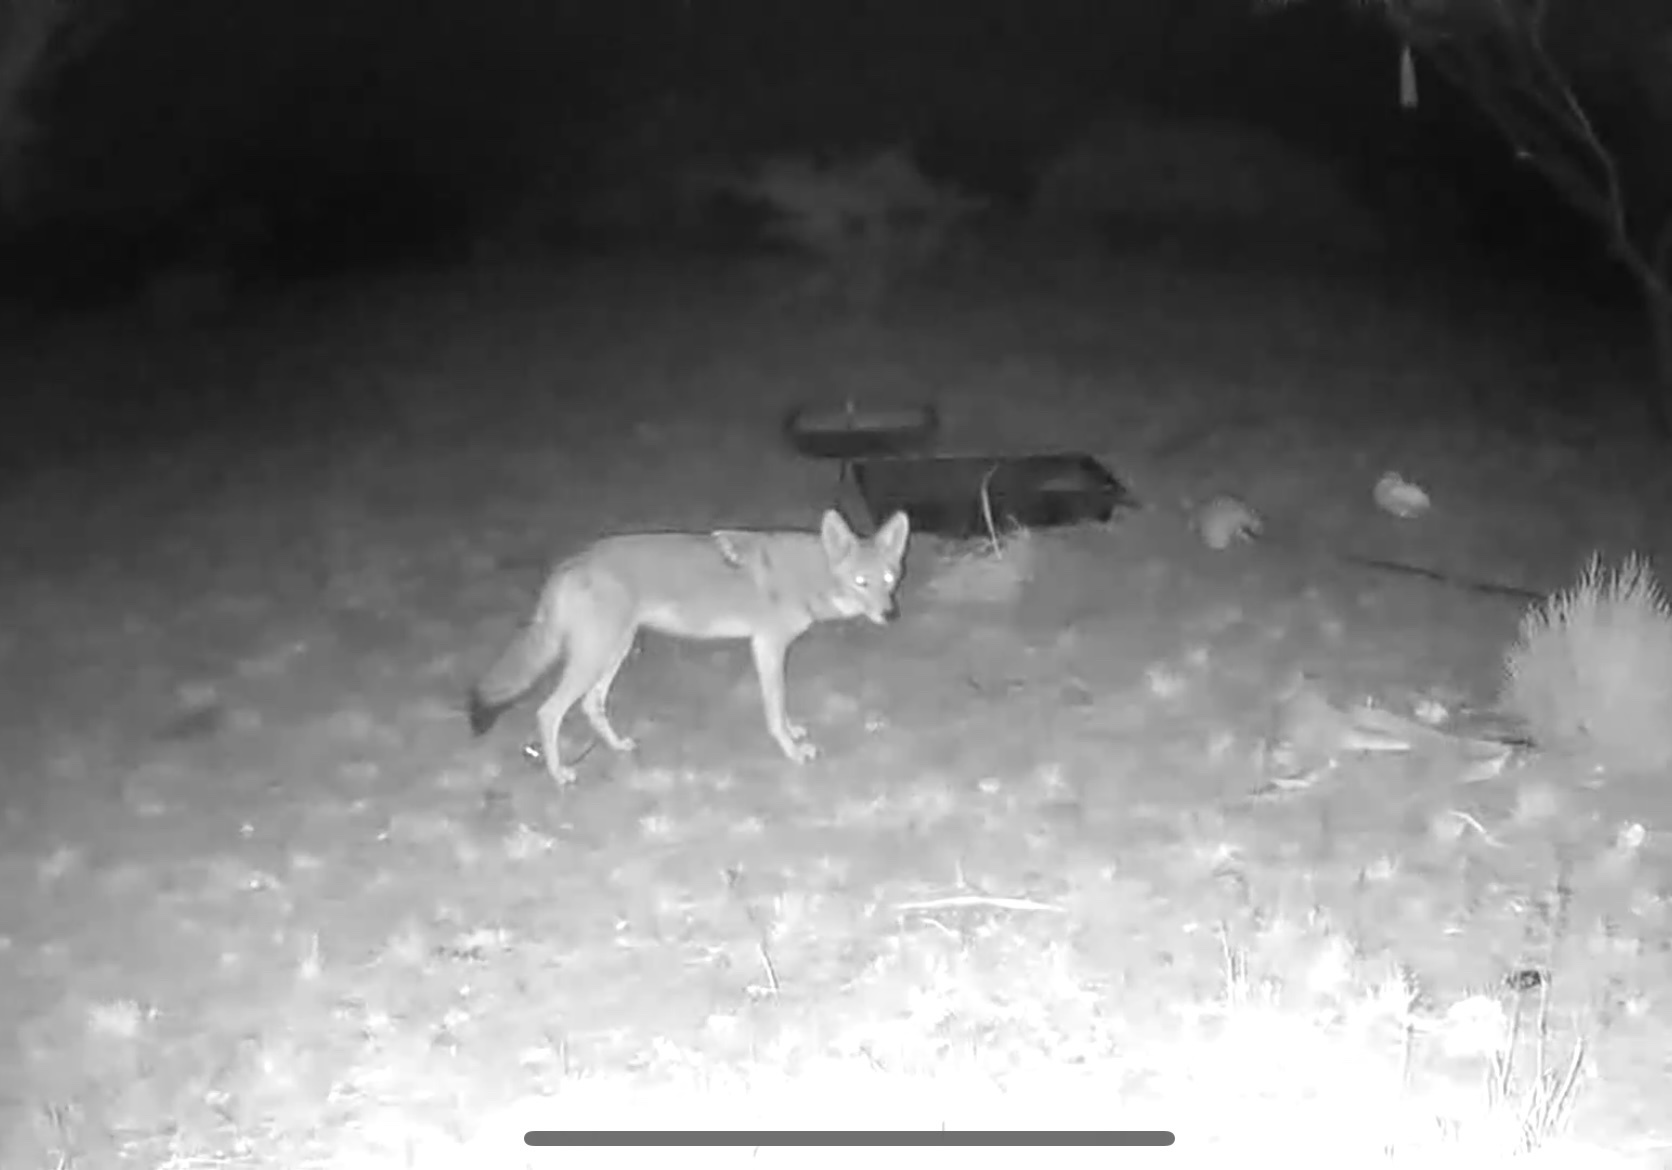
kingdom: Animalia
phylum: Chordata
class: Mammalia
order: Carnivora
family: Canidae
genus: Canis
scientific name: Canis latrans
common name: Coyote
